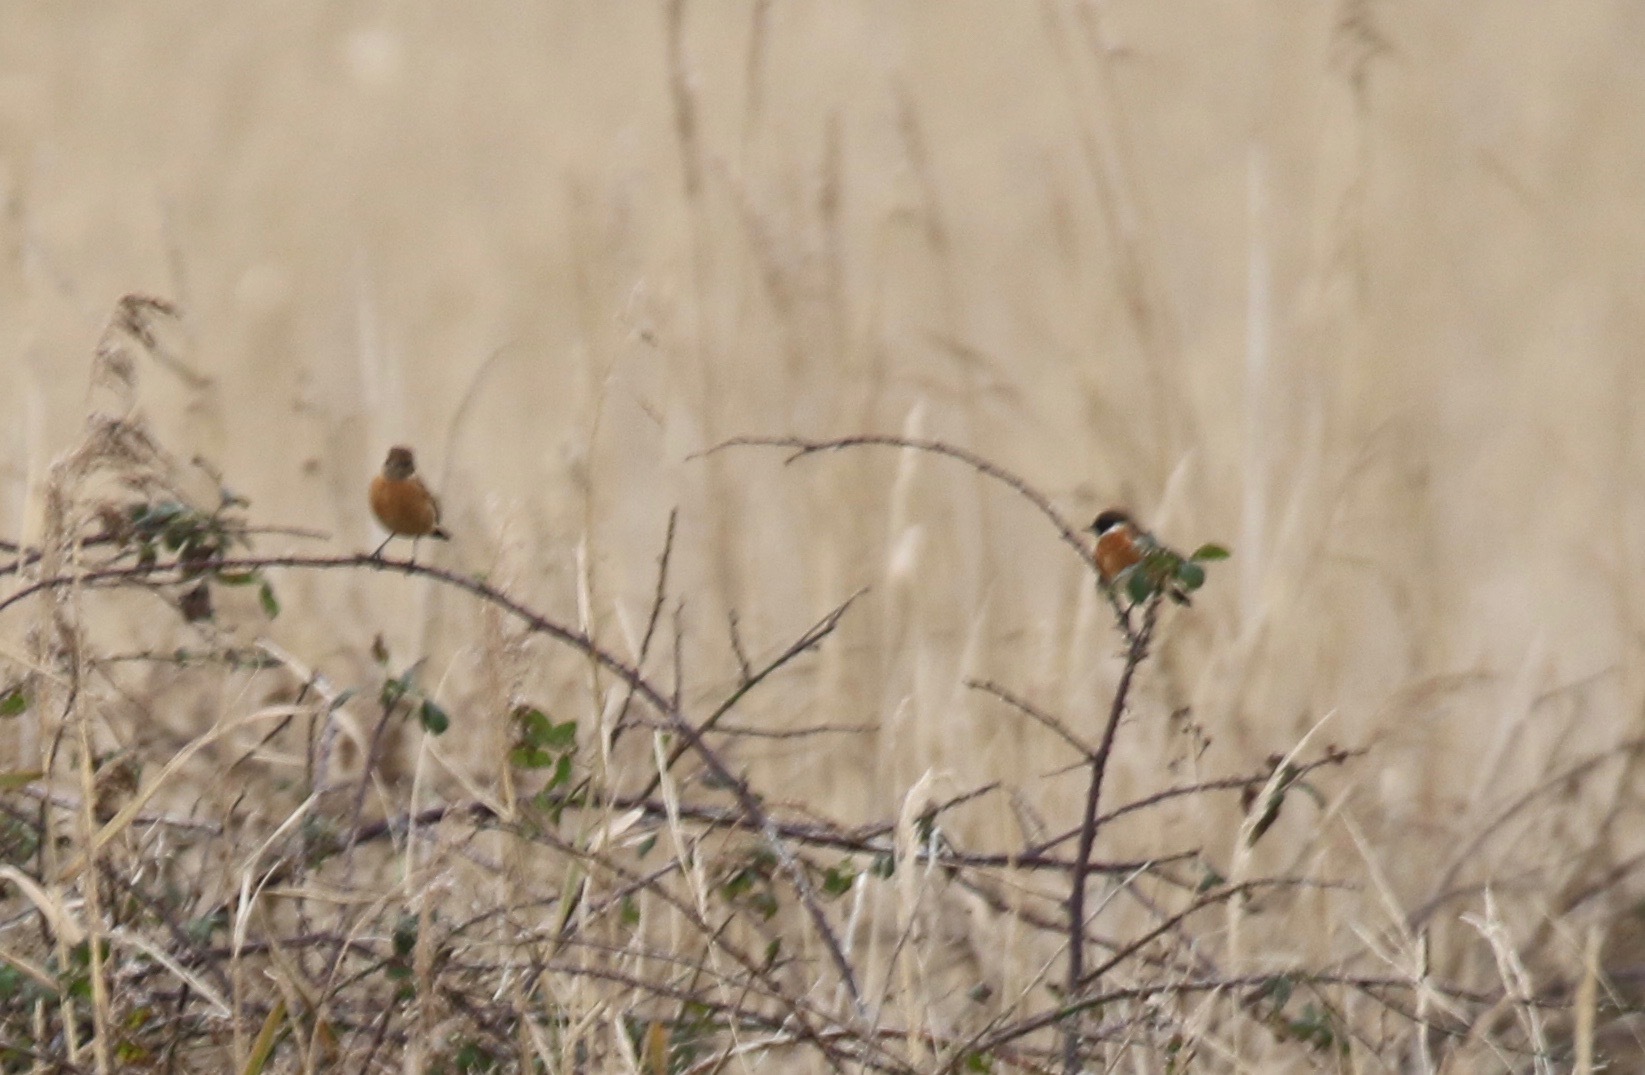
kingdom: Animalia
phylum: Chordata
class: Aves
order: Passeriformes
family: Muscicapidae
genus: Saxicola
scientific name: Saxicola rubicola
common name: European stonechat
